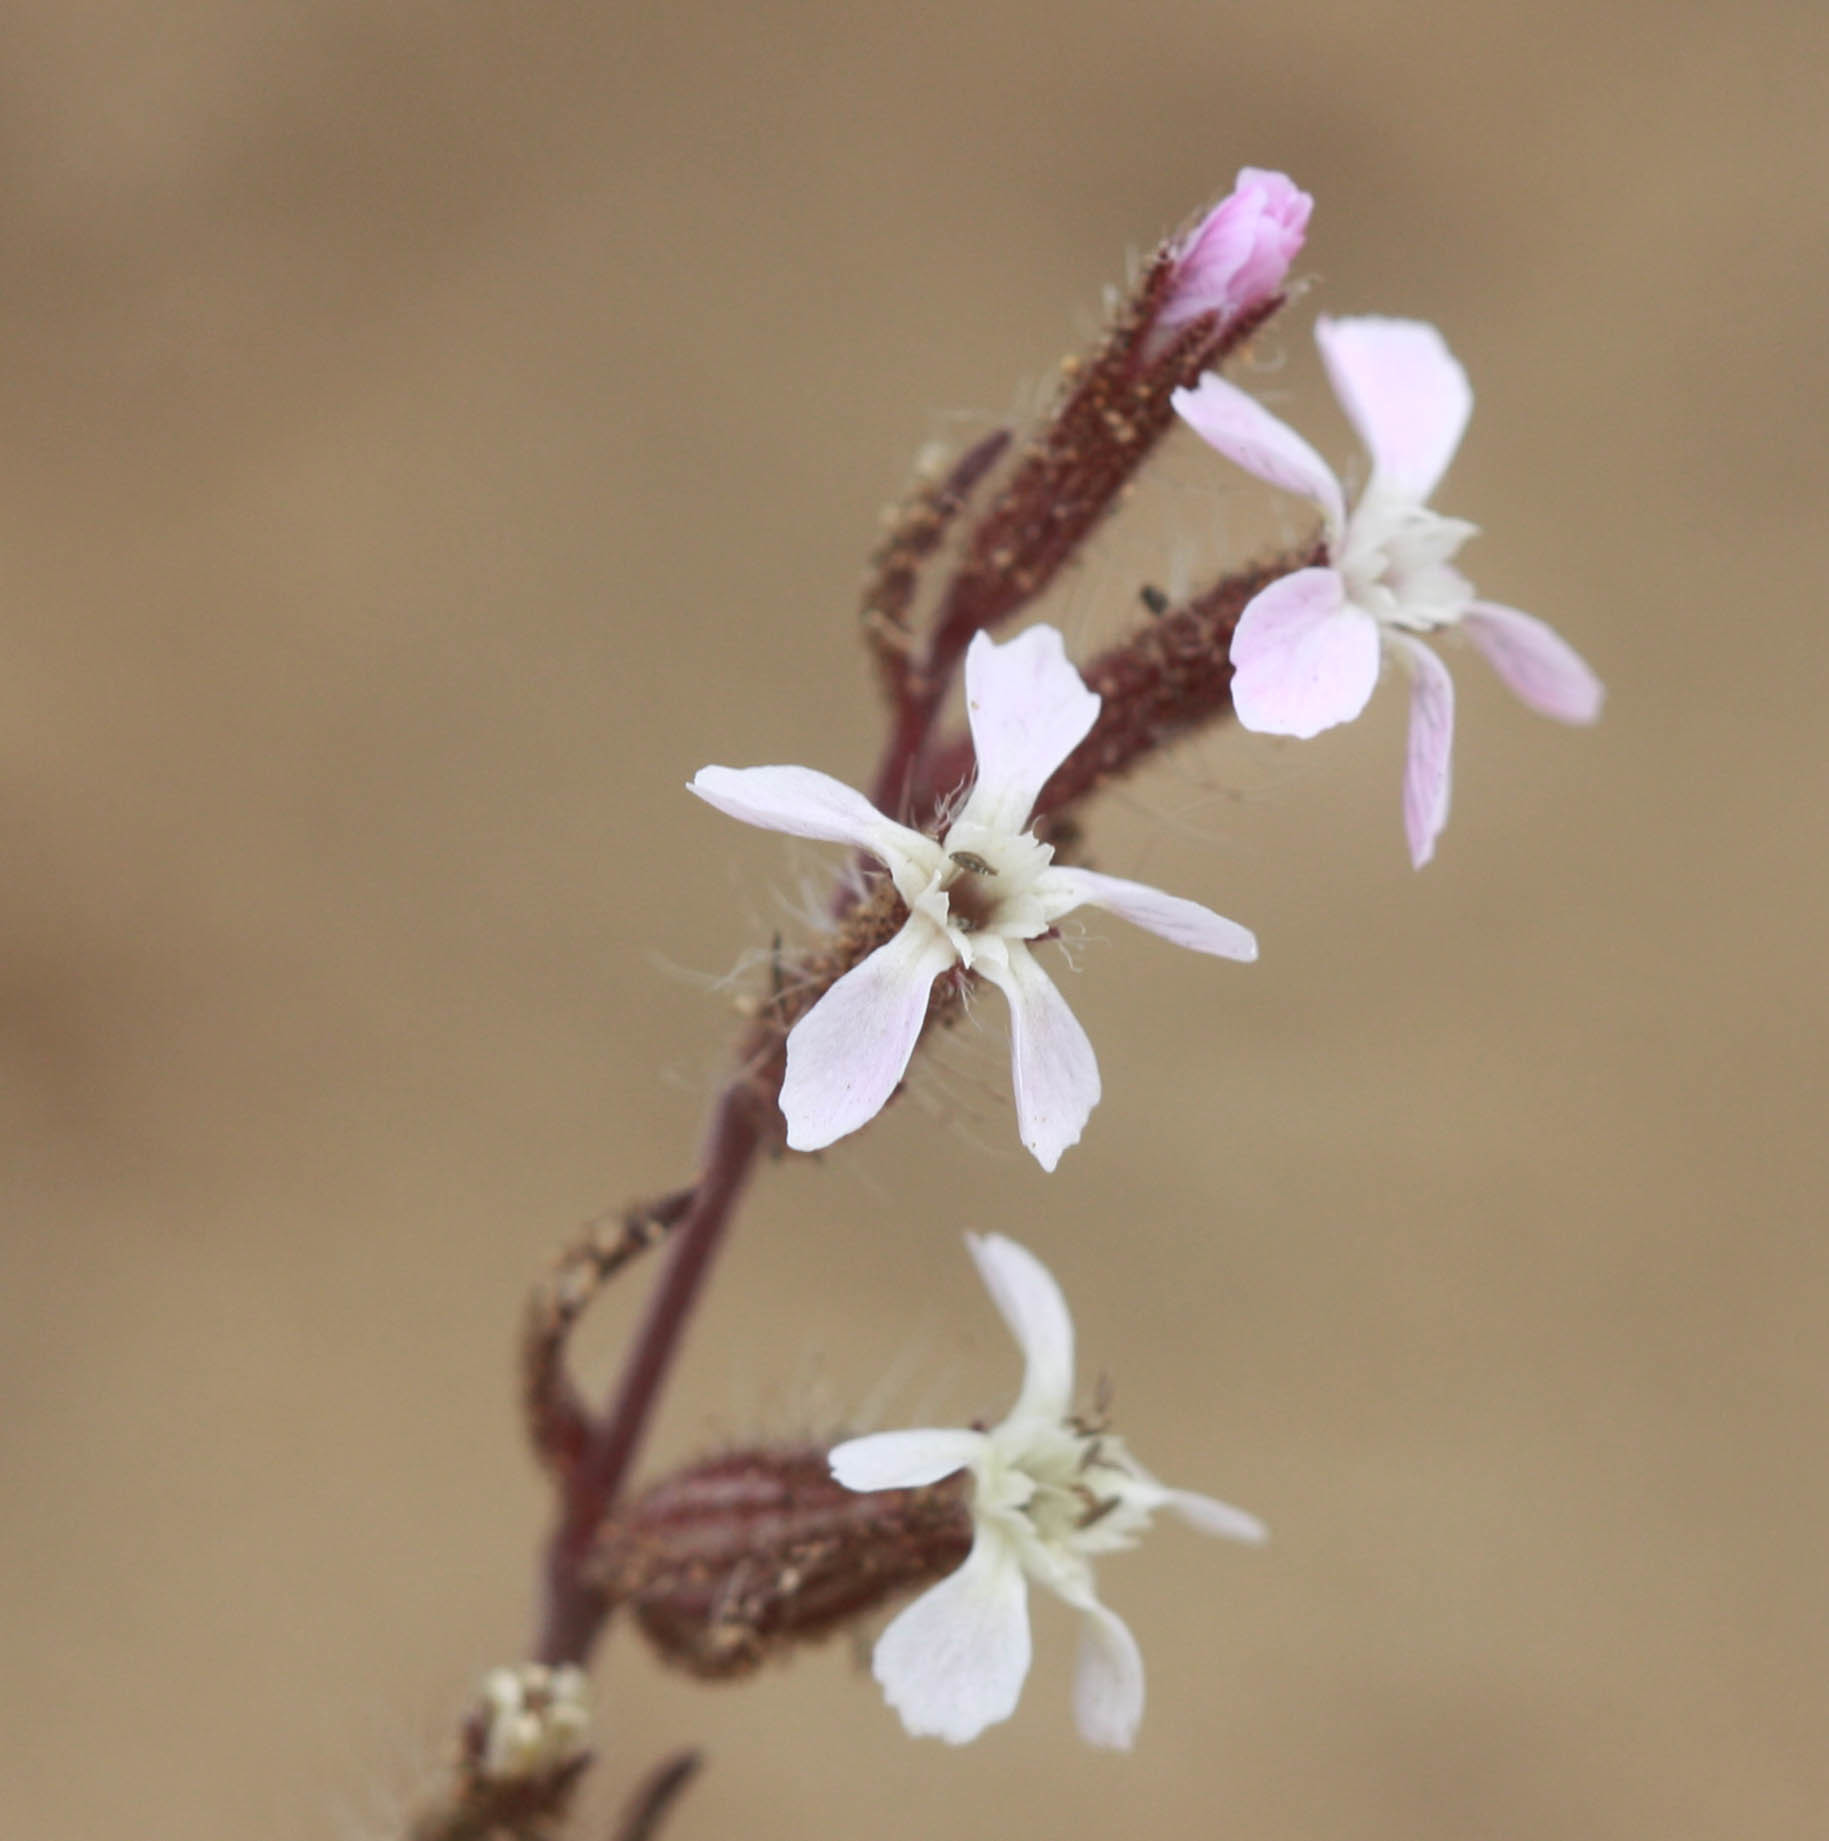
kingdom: Plantae
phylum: Tracheophyta
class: Magnoliopsida
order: Caryophyllales
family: Caryophyllaceae
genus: Silene
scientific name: Silene gallica
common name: Small-flowered catchfly
